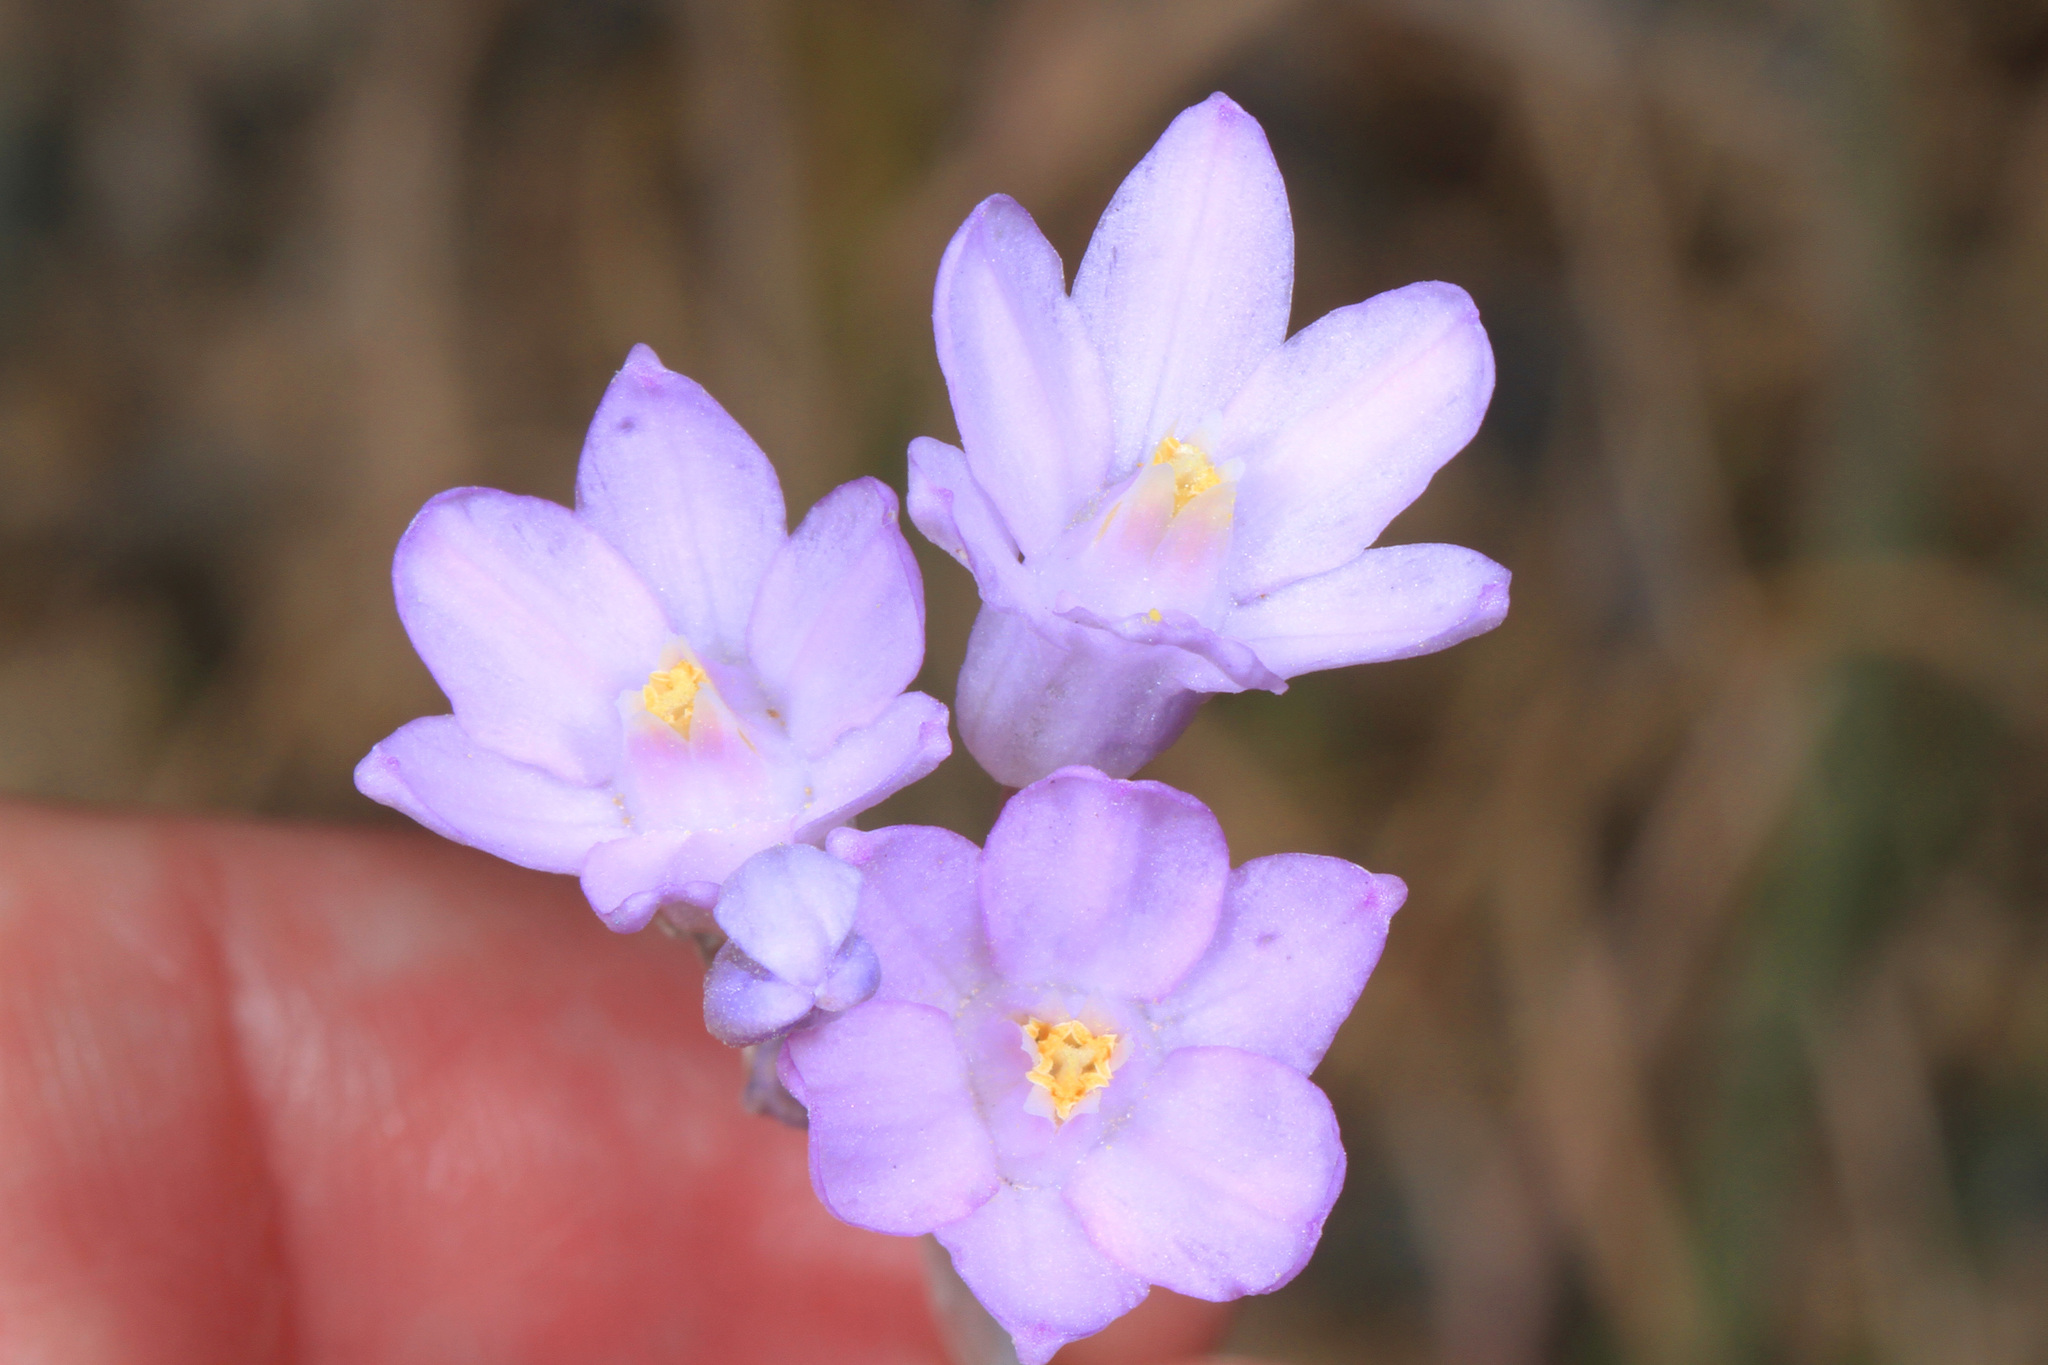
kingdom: Plantae
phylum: Tracheophyta
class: Liliopsida
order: Asparagales
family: Asparagaceae
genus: Dipterostemon
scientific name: Dipterostemon capitatus
